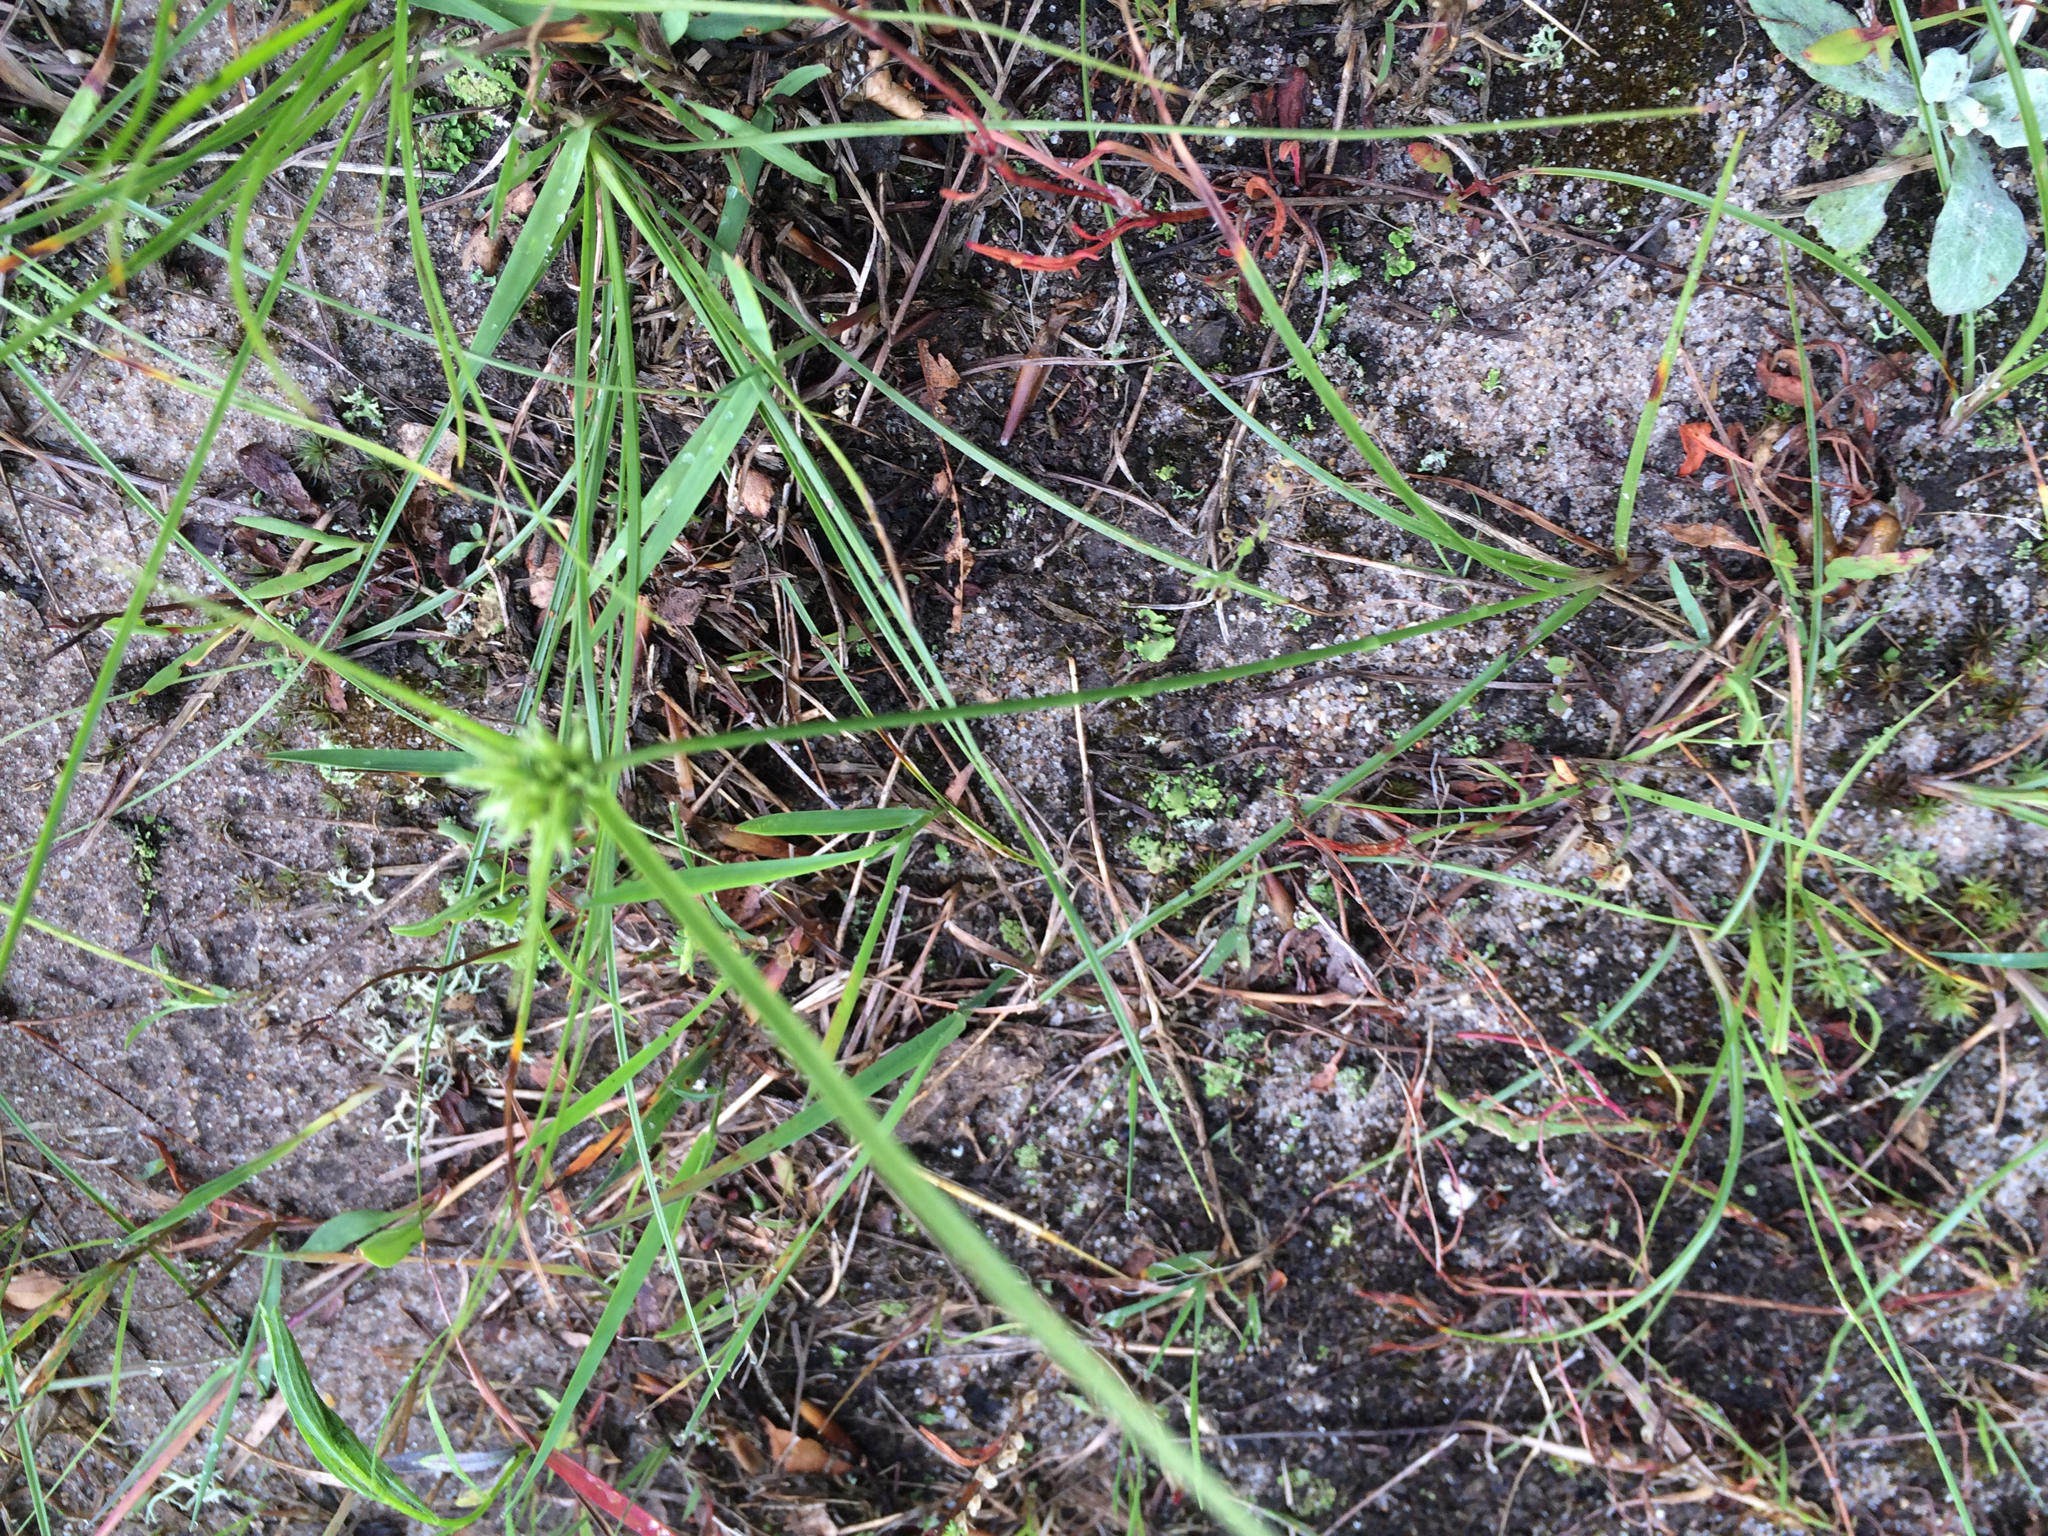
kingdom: Plantae
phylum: Tracheophyta
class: Liliopsida
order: Poales
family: Cyperaceae
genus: Cyperus
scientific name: Cyperus lupulinus
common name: Great plains flatsedge
